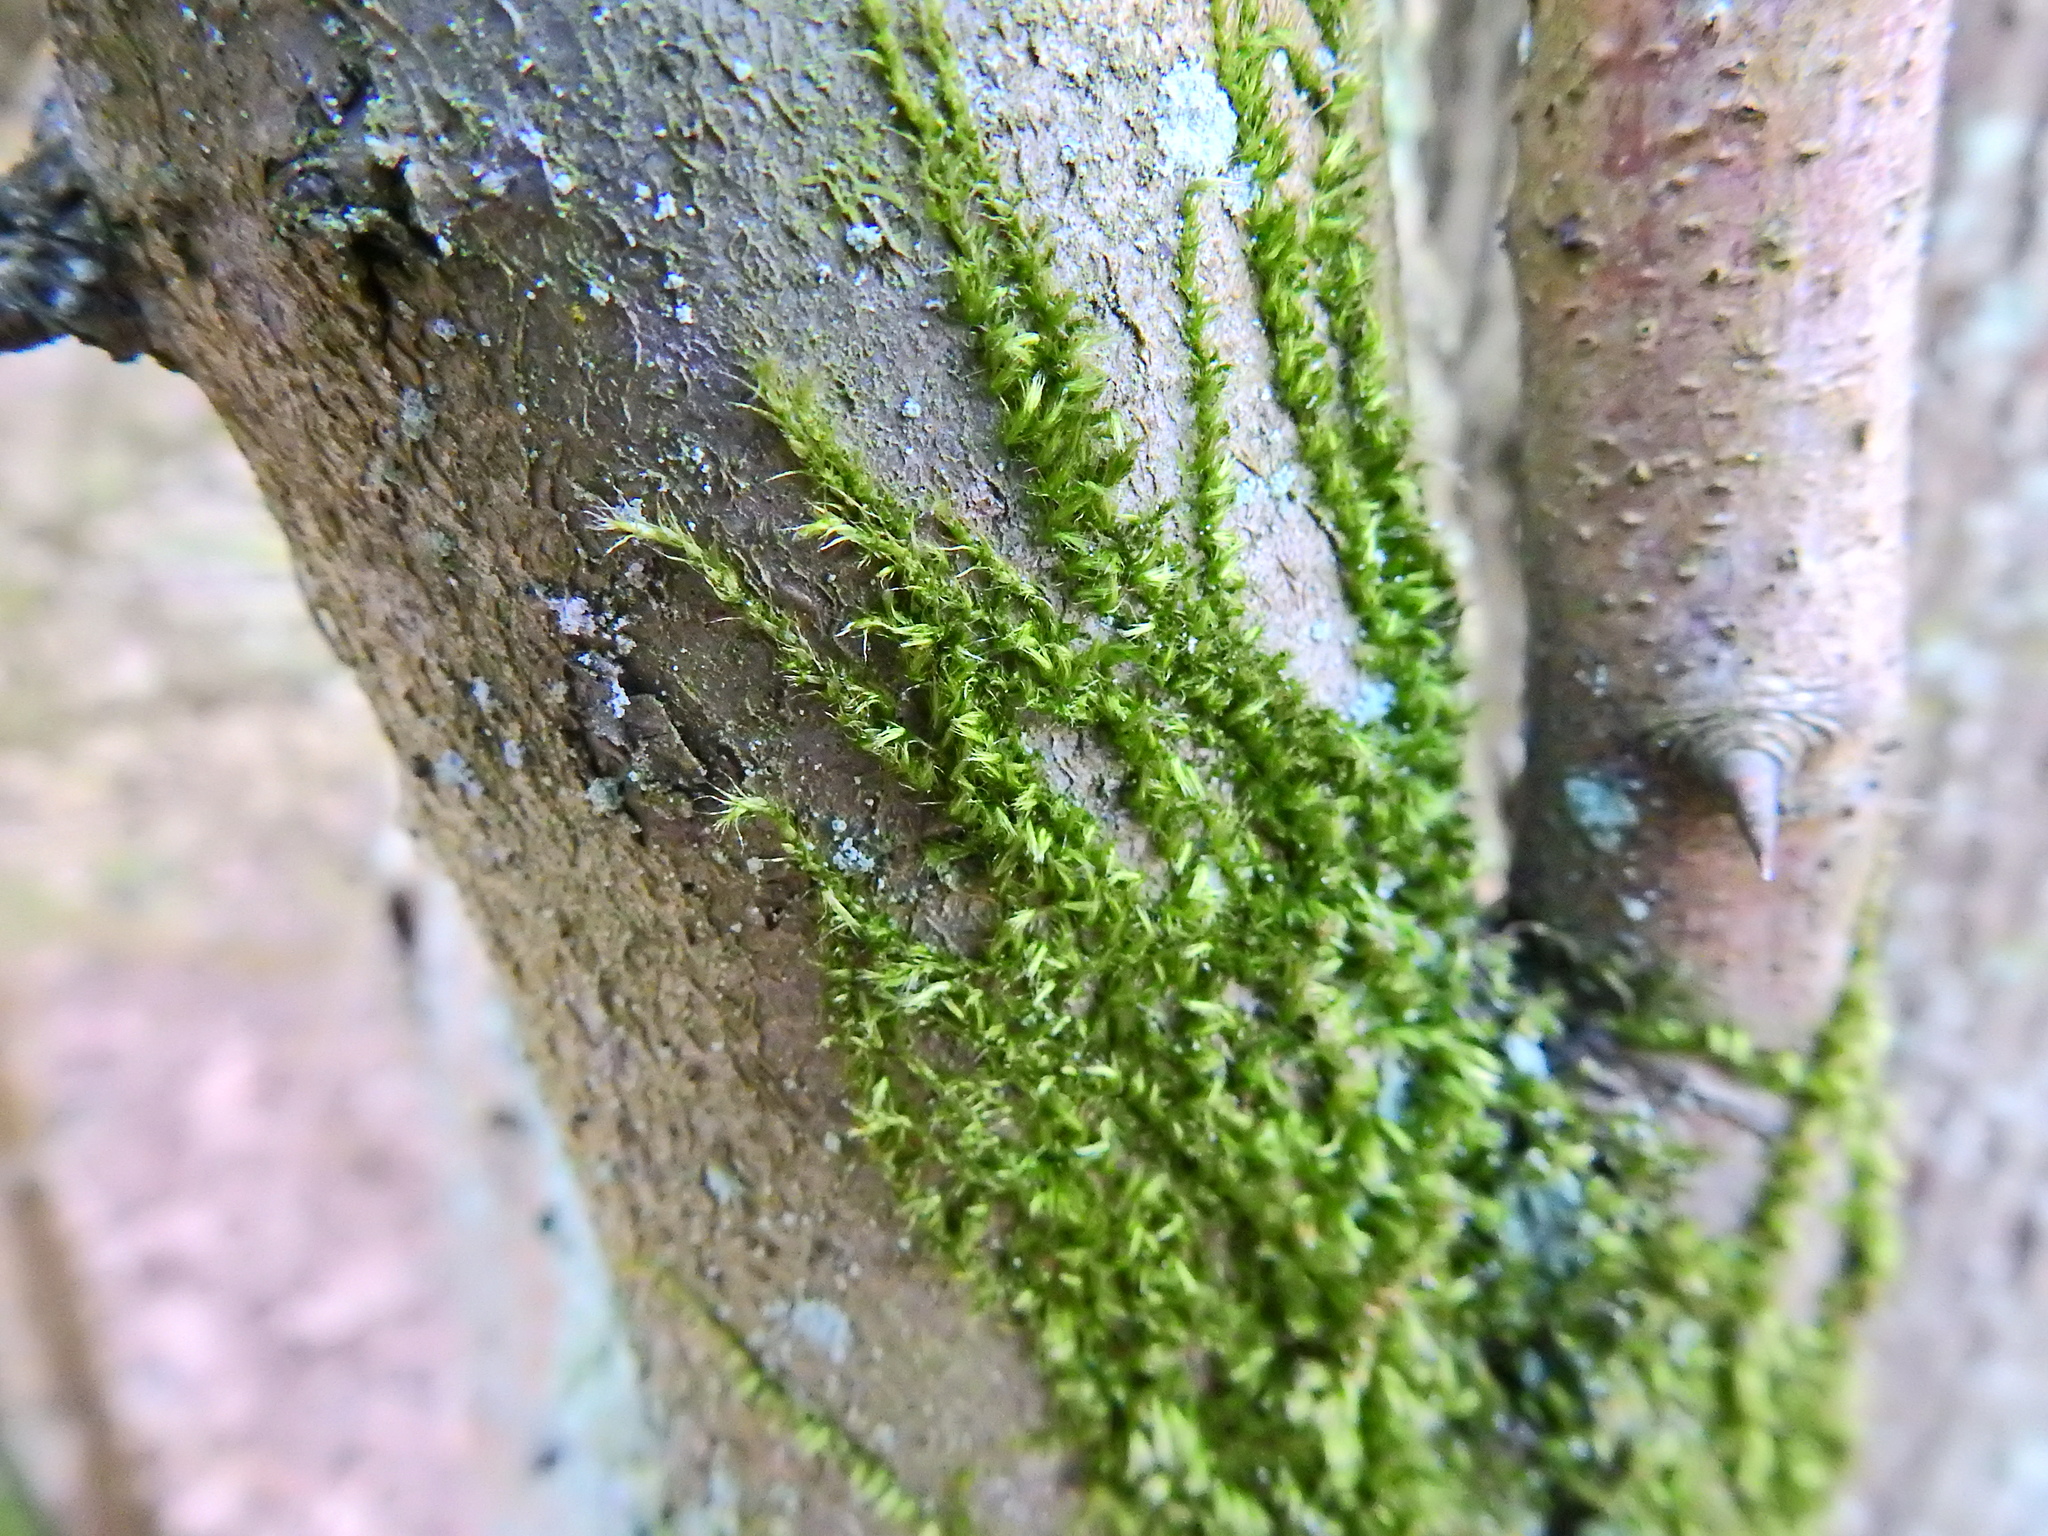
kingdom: Plantae
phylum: Bryophyta
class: Bryopsida
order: Hypnales
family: Brachytheciaceae
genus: Homalothecium
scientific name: Homalothecium sericeum
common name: Silky wall feather-moss
